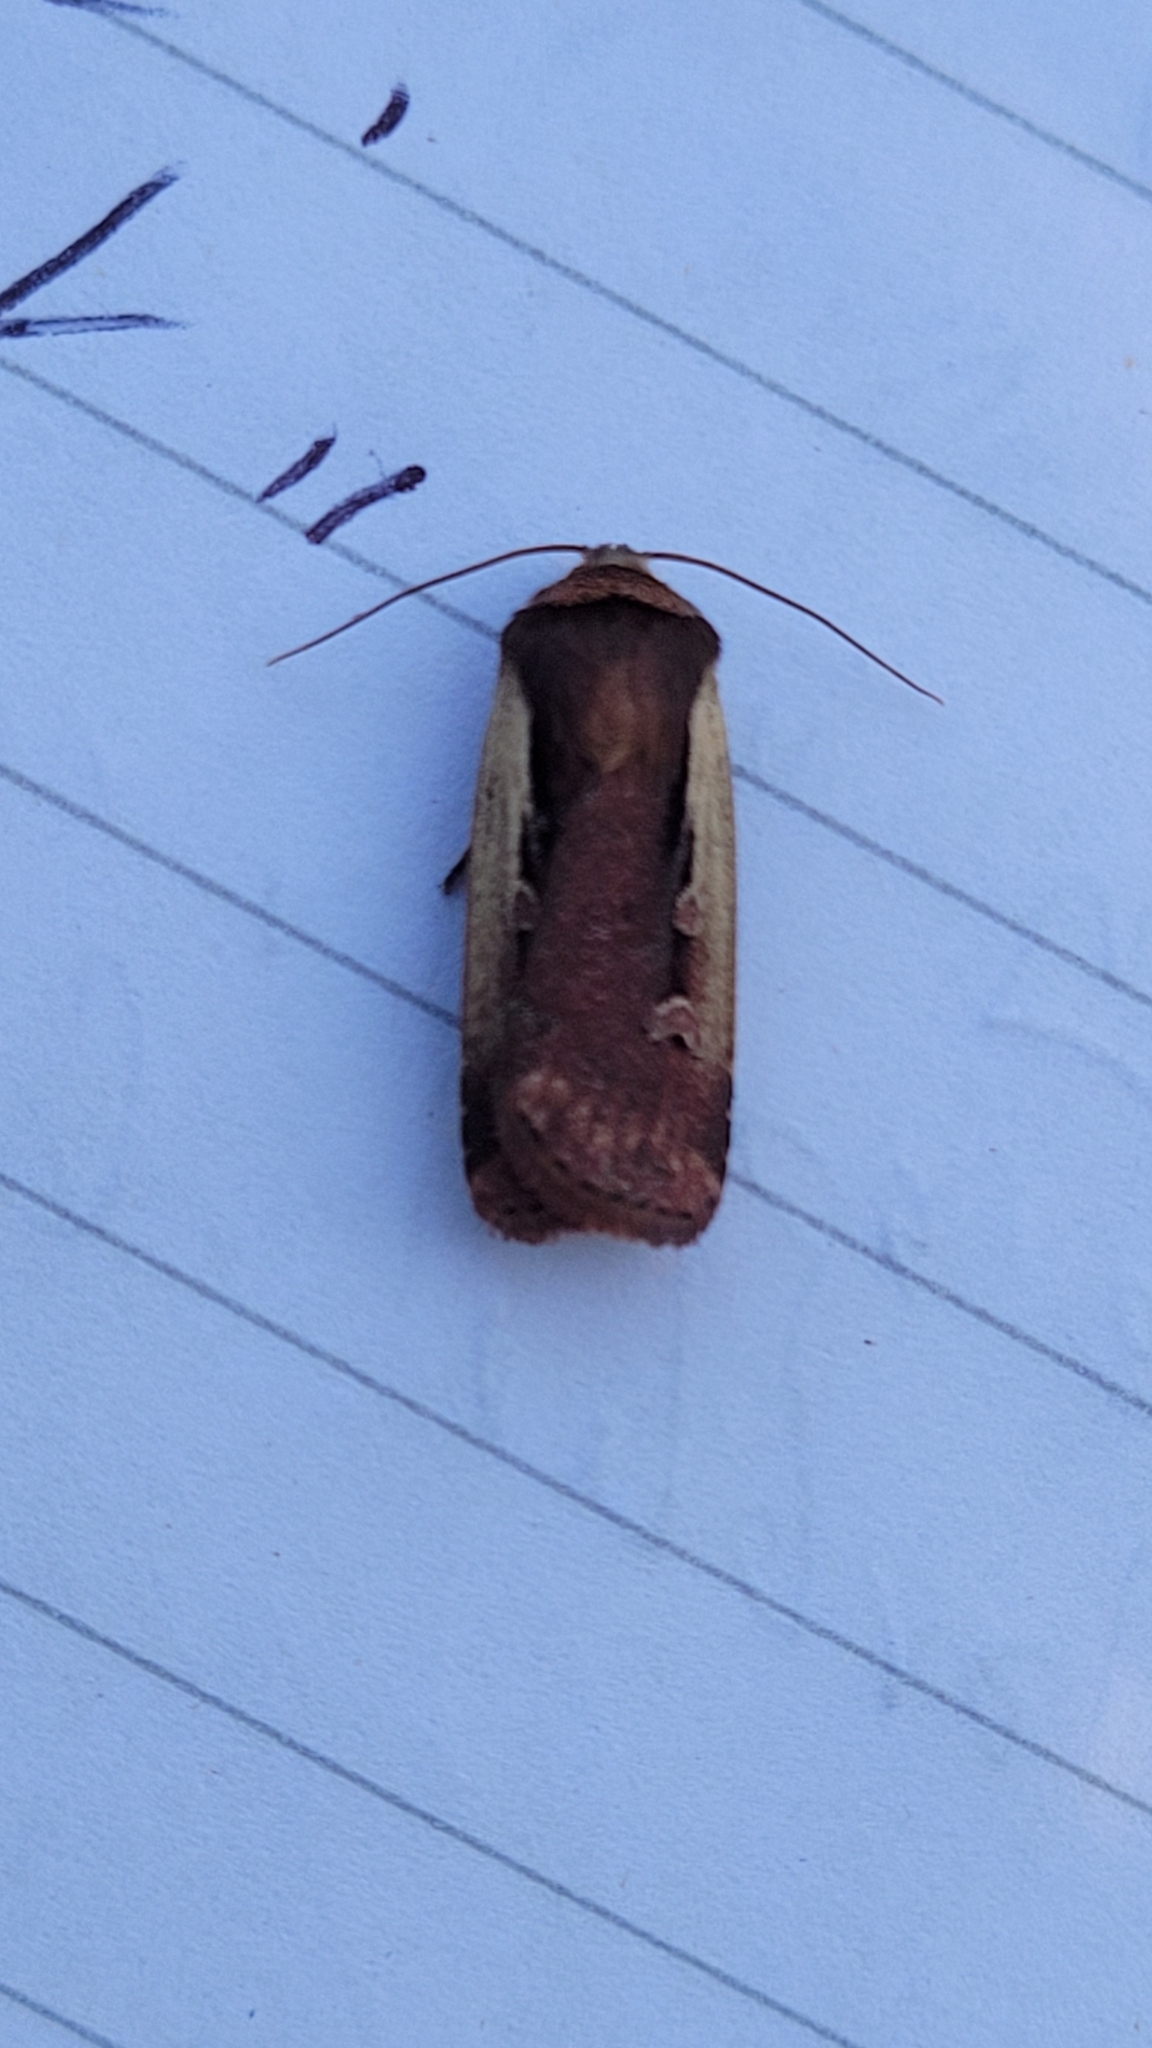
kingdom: Animalia
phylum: Arthropoda
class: Insecta
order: Lepidoptera
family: Noctuidae
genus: Ochropleura
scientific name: Ochropleura plecta
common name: Flame shoulder
